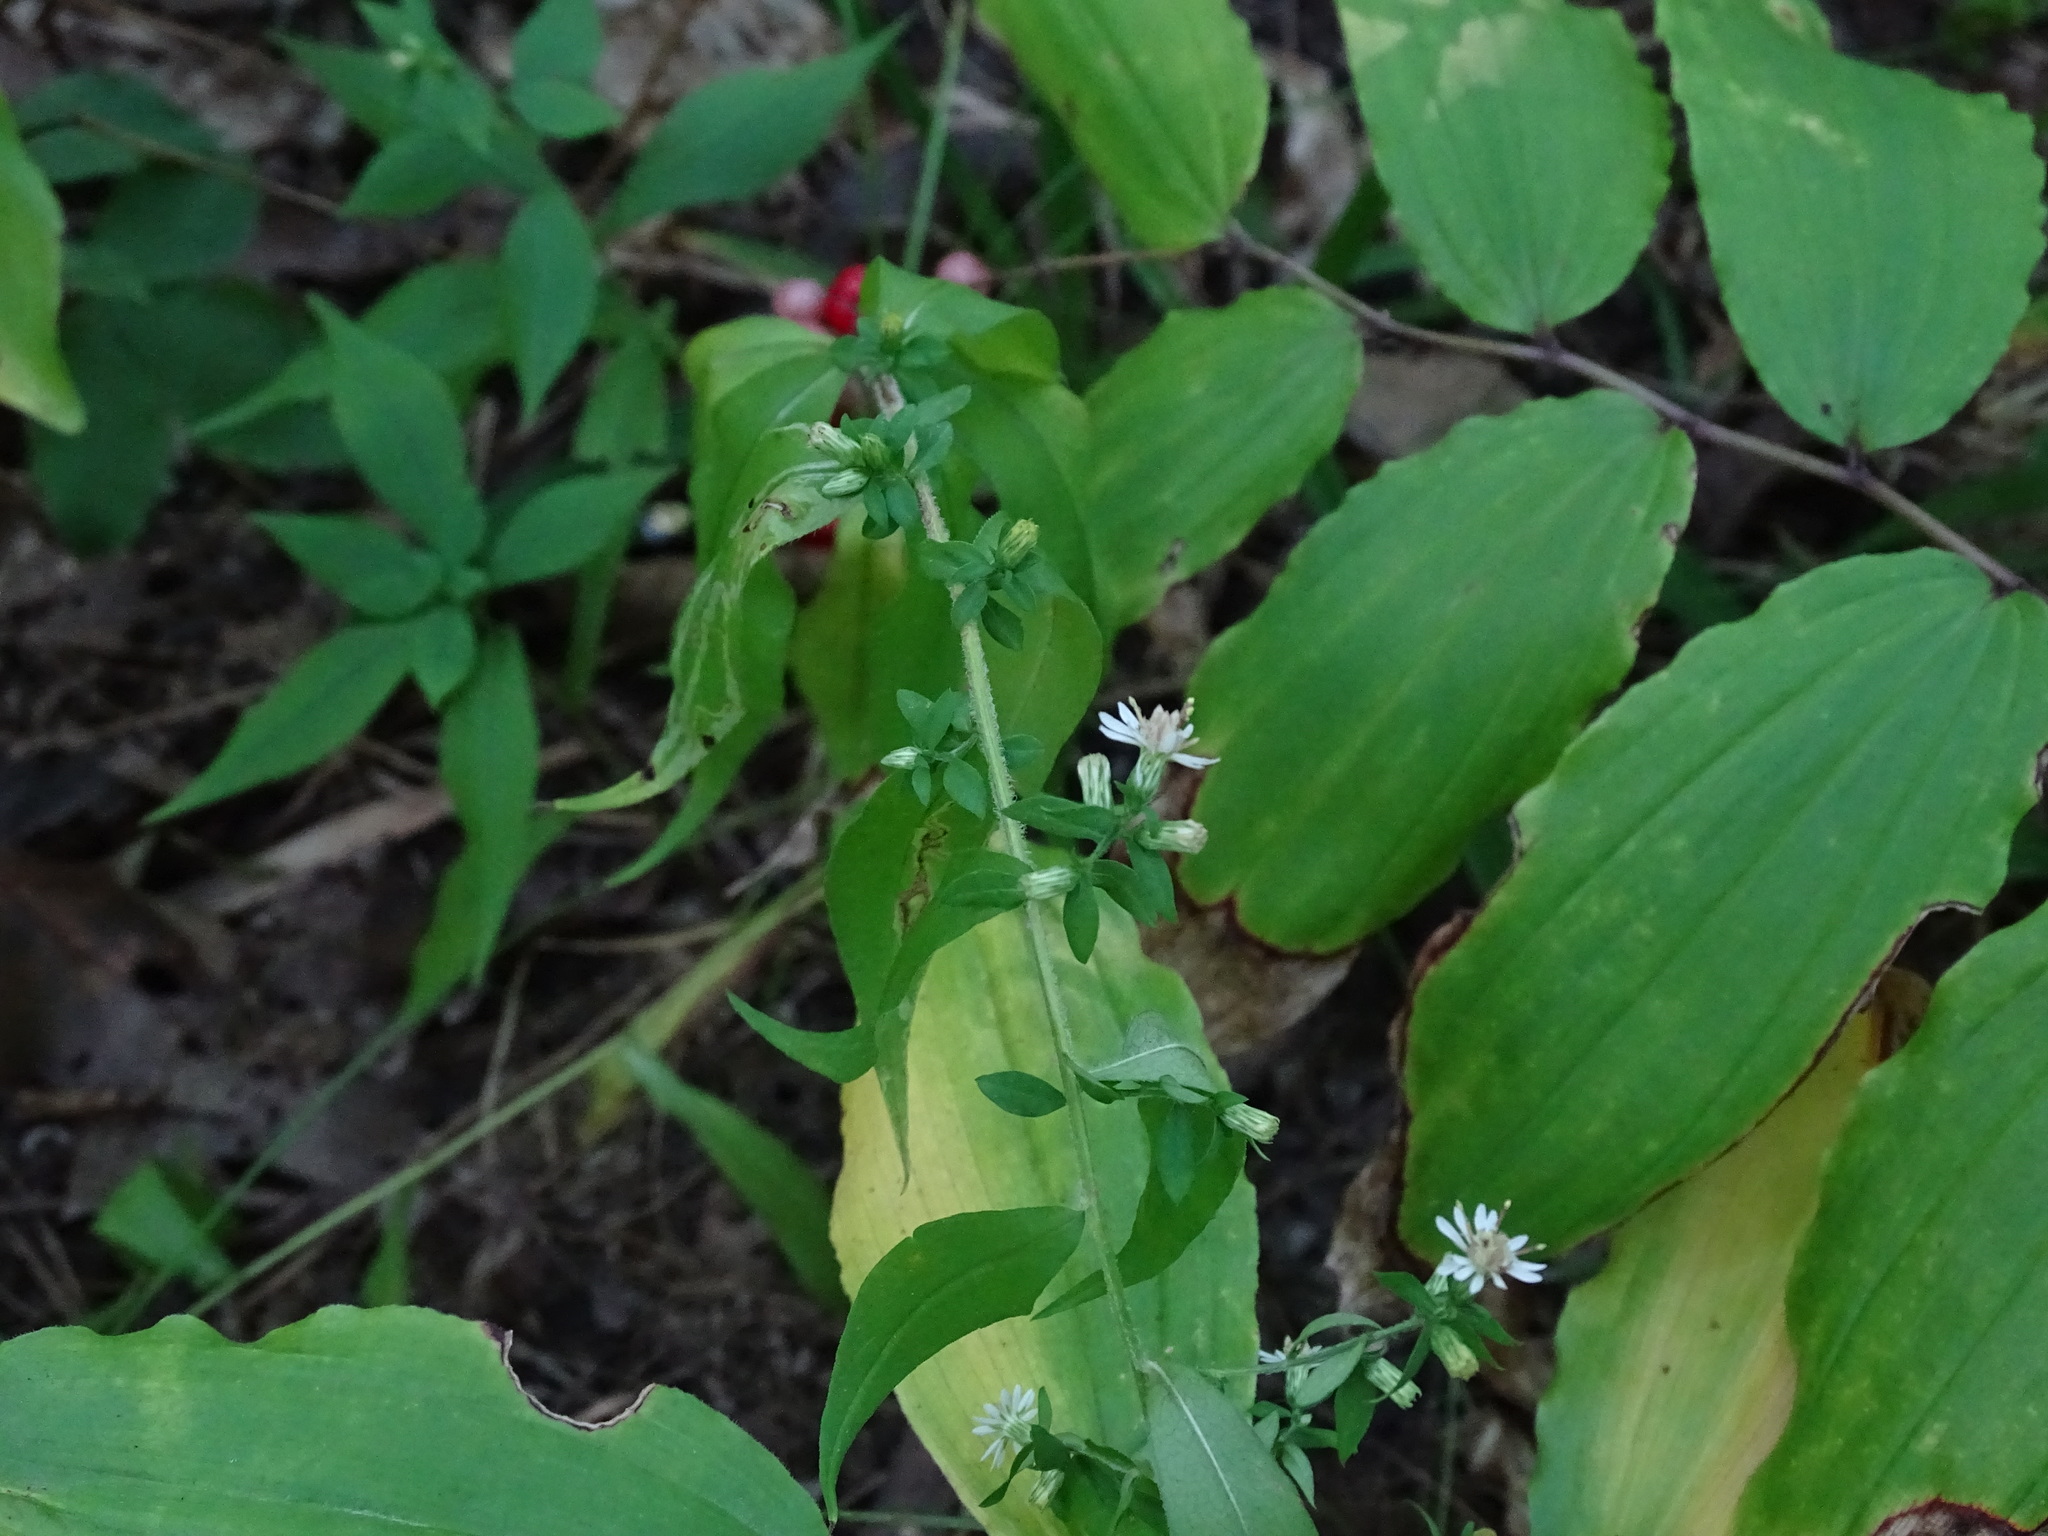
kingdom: Plantae
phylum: Tracheophyta
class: Magnoliopsida
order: Asterales
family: Asteraceae
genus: Symphyotrichum
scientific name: Symphyotrichum lateriflorum
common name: Calico aster
